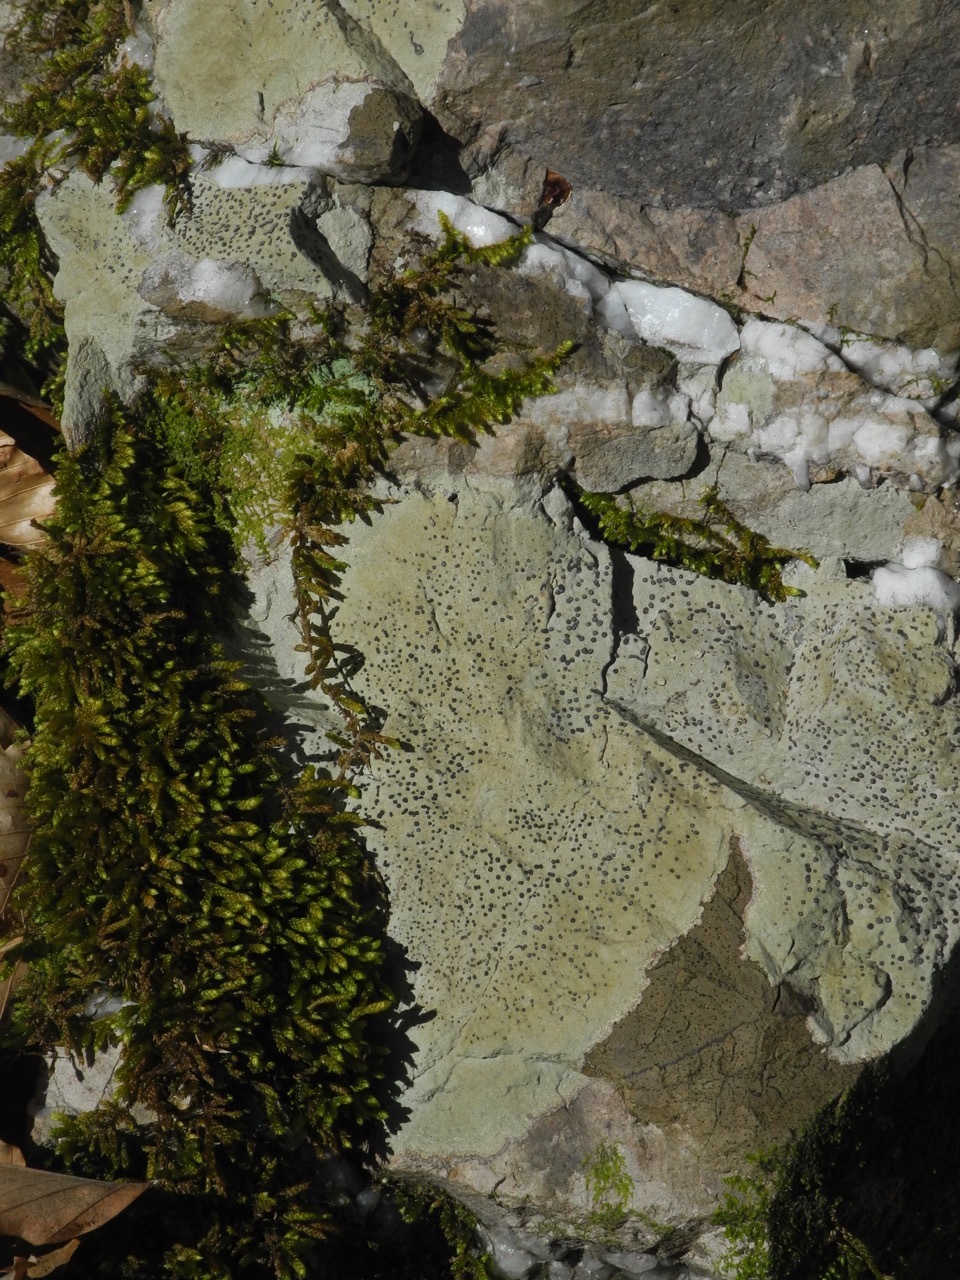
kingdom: Fungi
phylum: Ascomycota
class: Lecanoromycetes
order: Lecideales
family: Lecideaceae
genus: Porpidia
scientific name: Porpidia albocaerulescens
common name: Smokey-eyed boulder lichen
